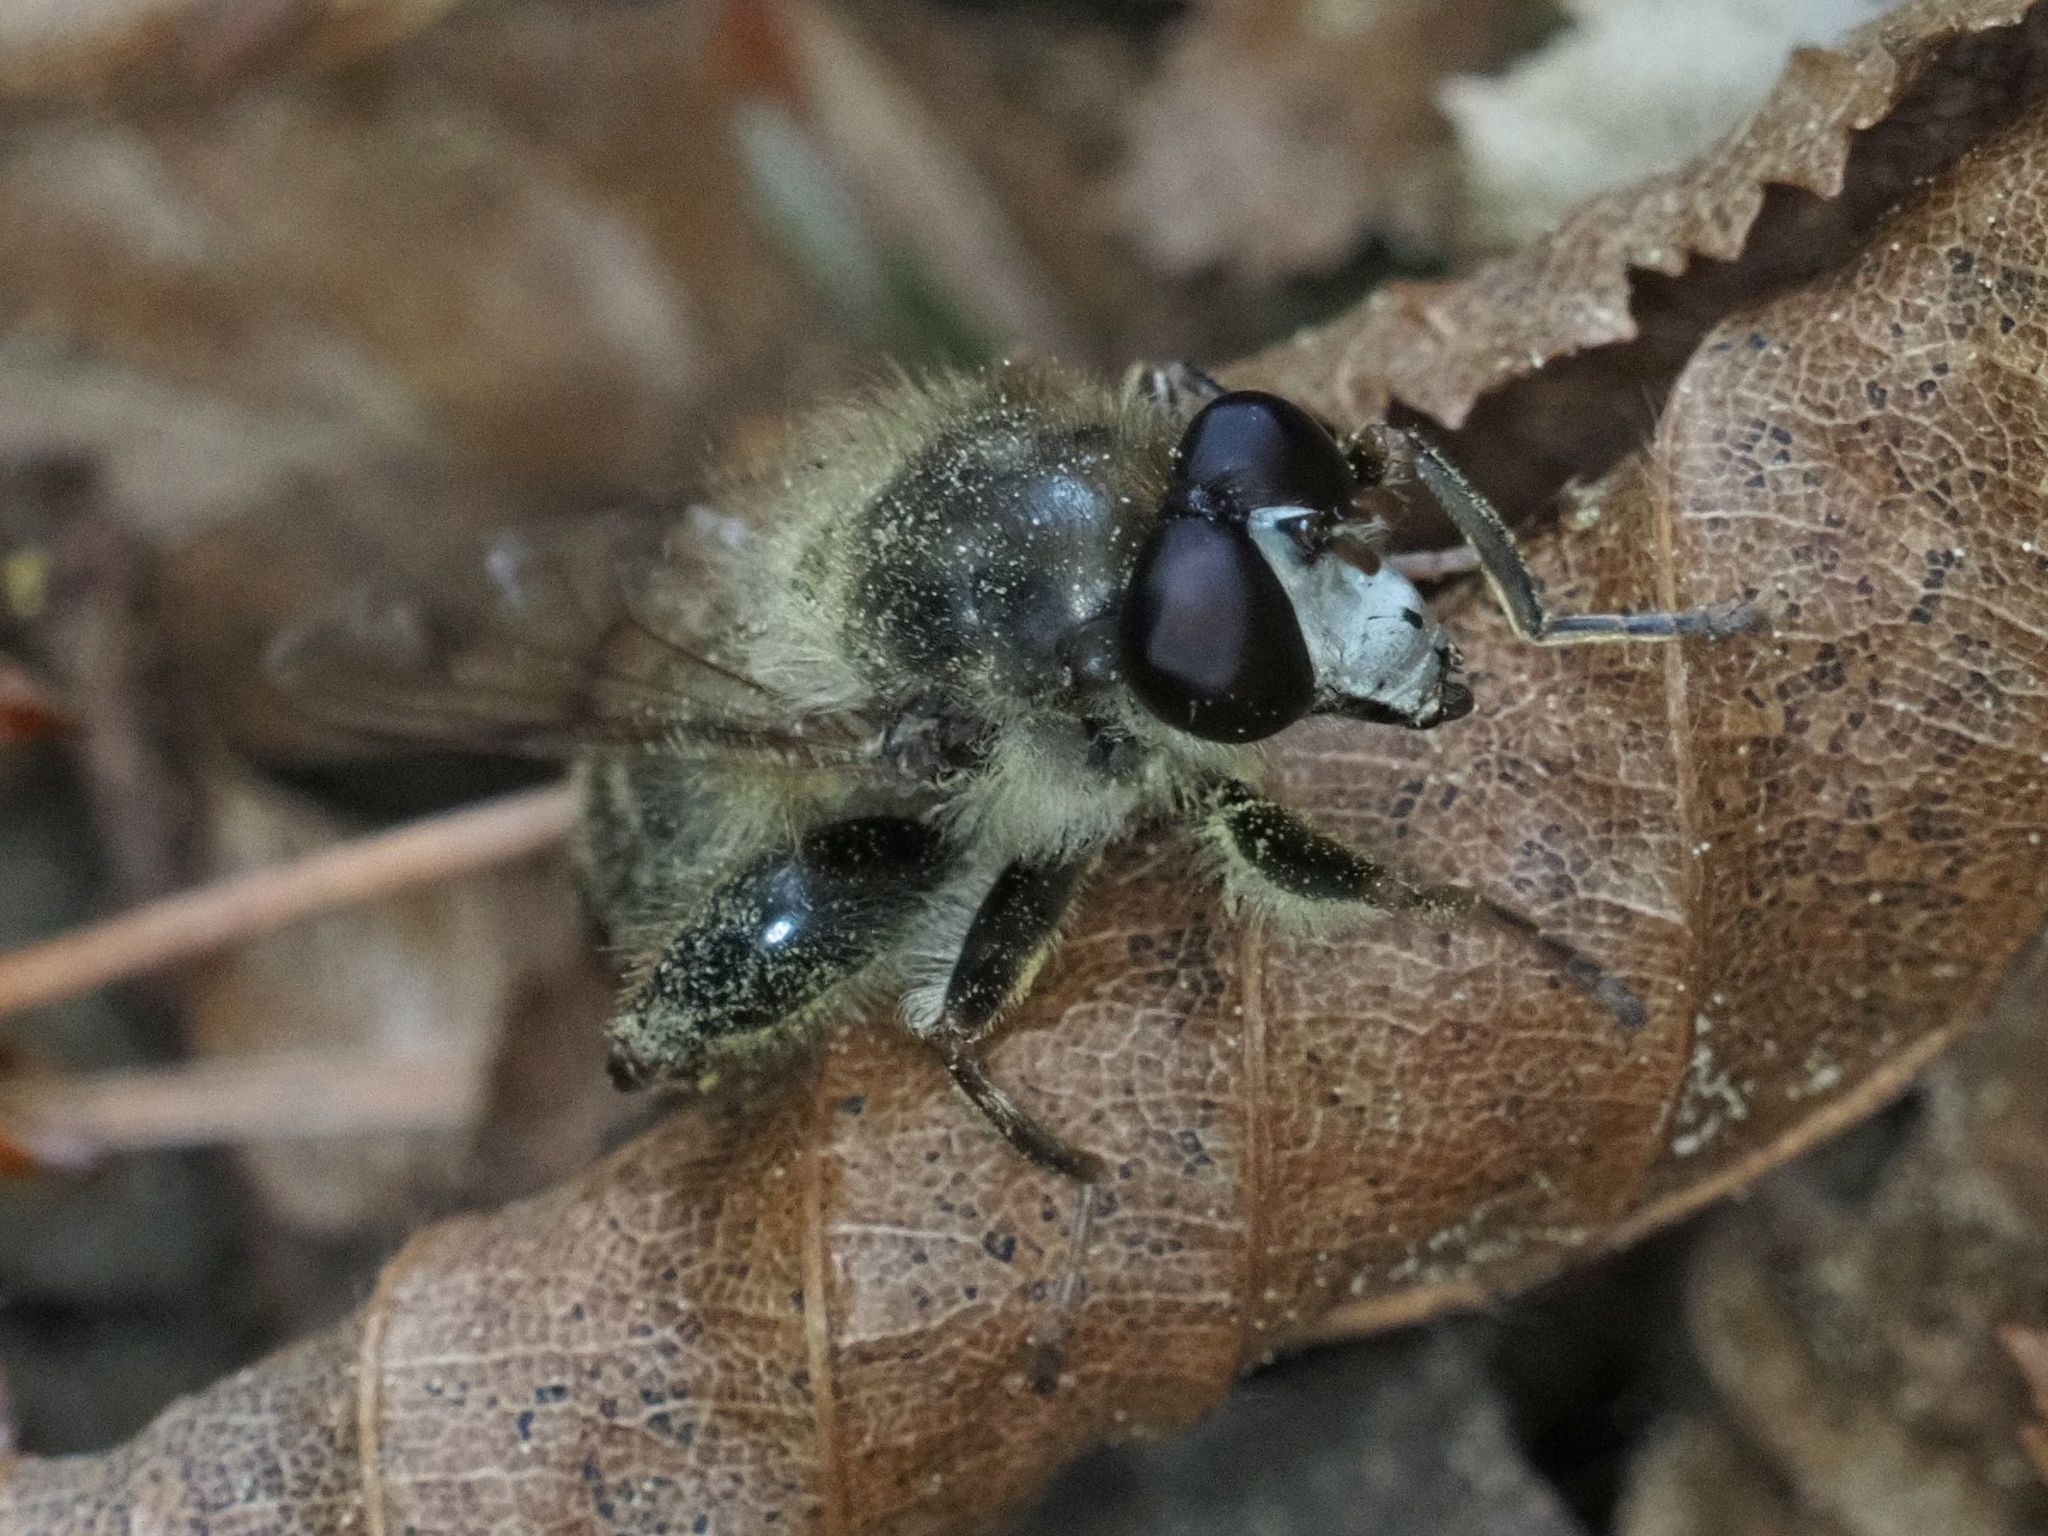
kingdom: Animalia
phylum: Arthropoda
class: Insecta
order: Diptera
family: Syrphidae
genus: Criorhina
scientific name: Criorhina pachymera
